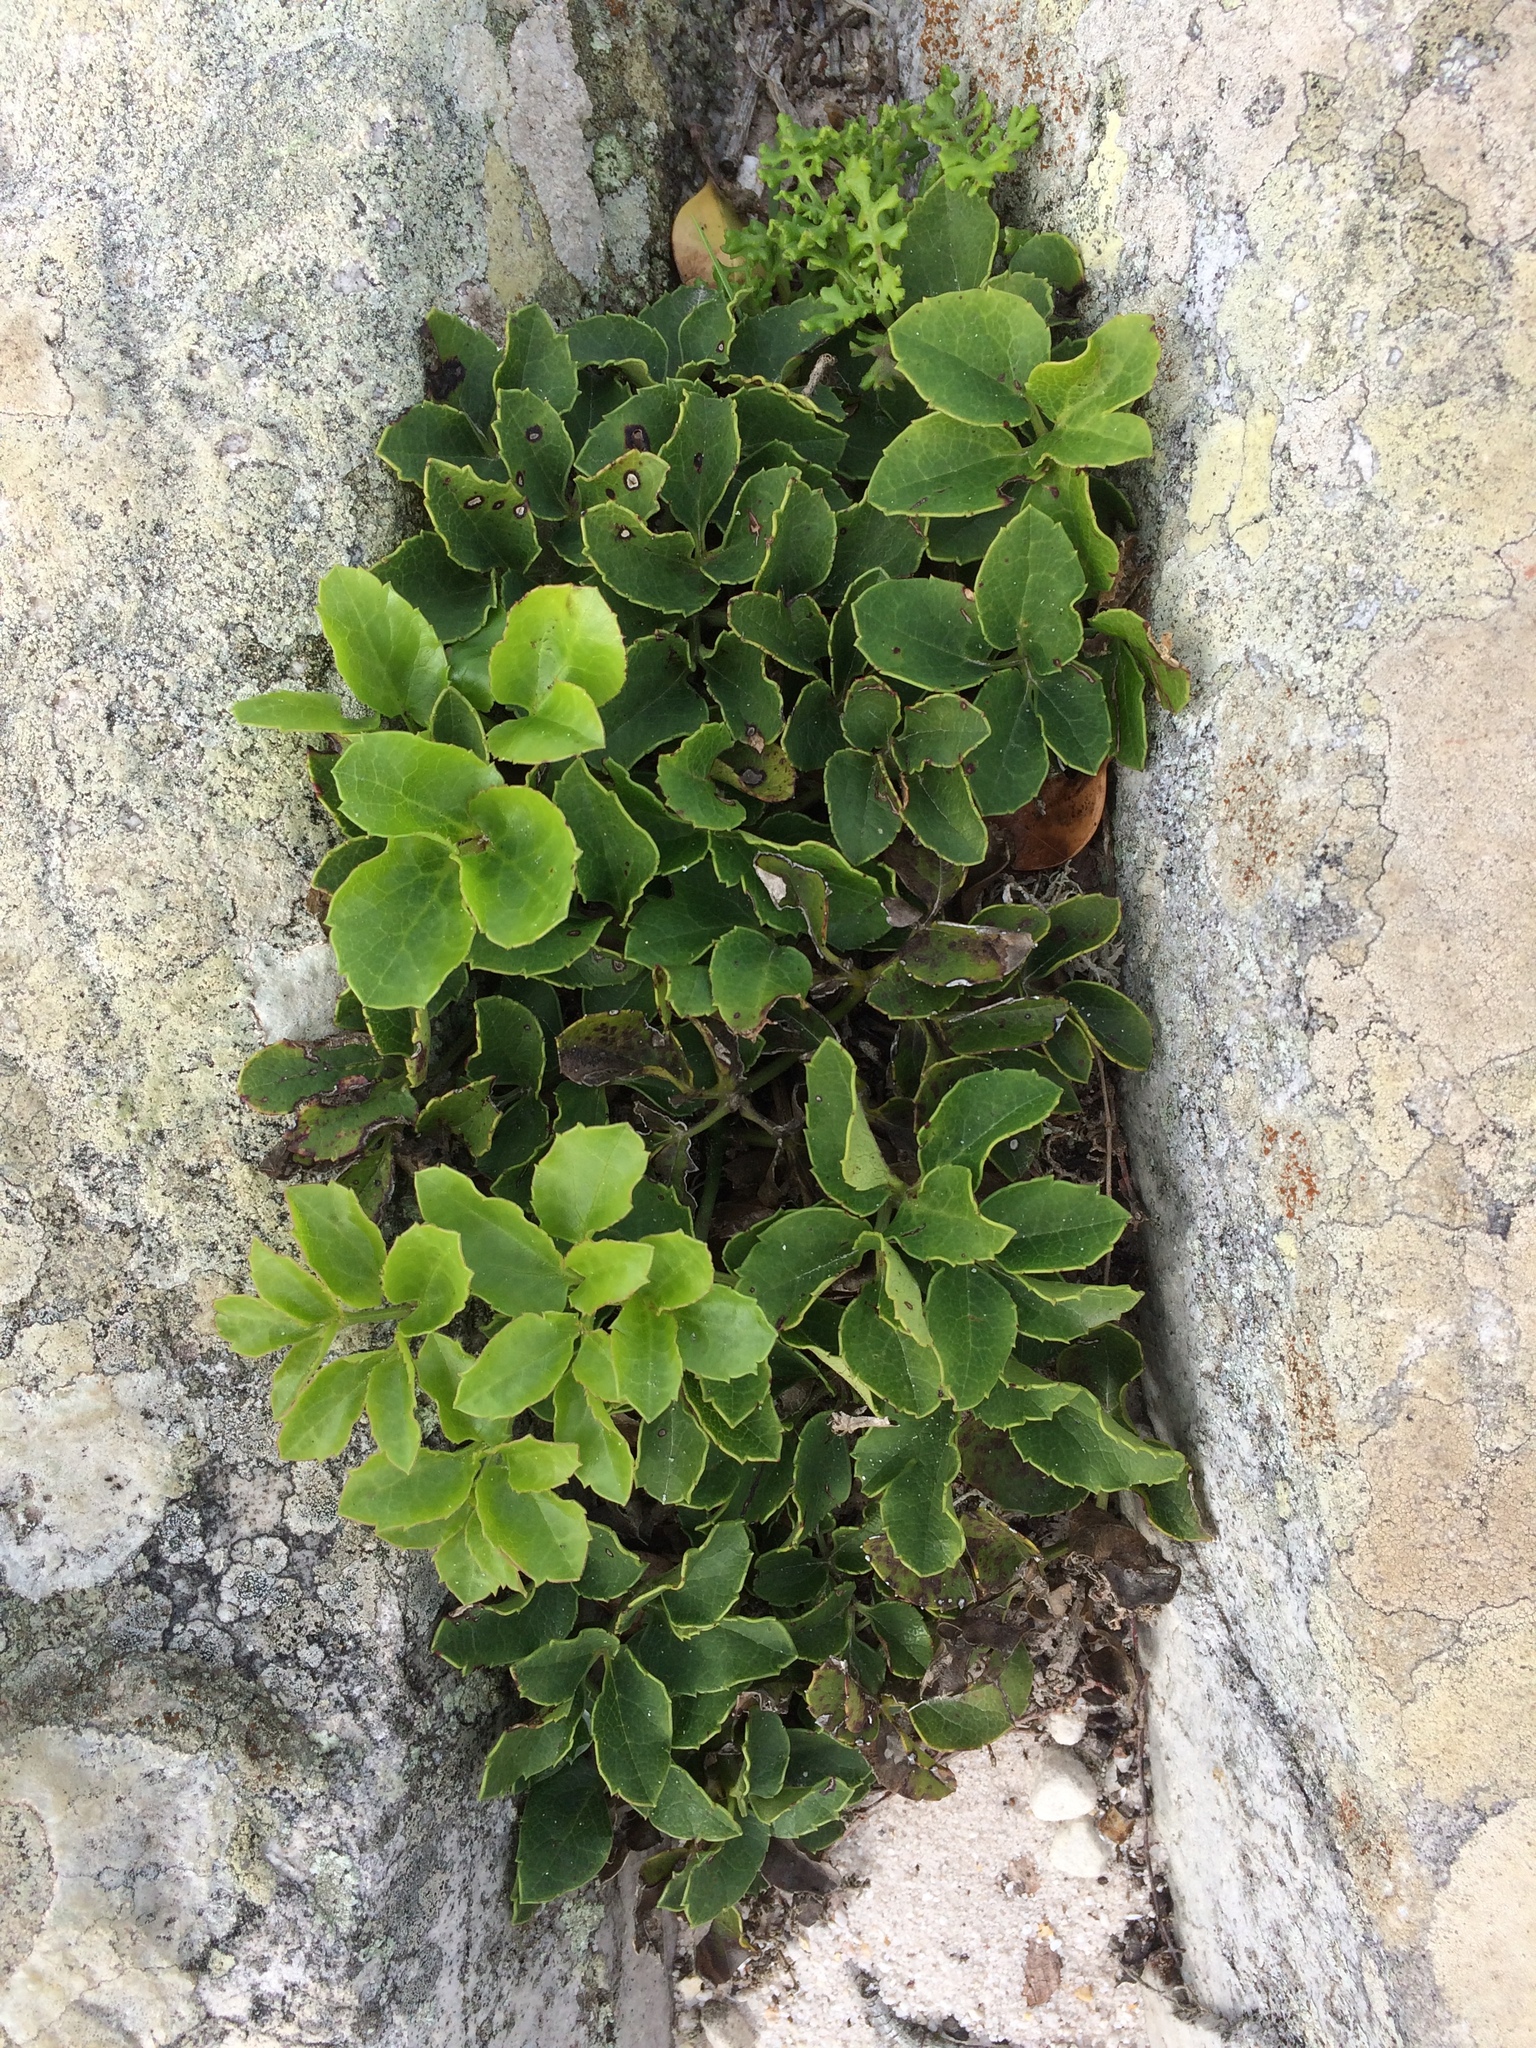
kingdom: Plantae
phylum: Tracheophyta
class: Magnoliopsida
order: Ranunculales
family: Ranunculaceae
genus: Knowltonia
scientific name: Knowltonia vesicatoria
